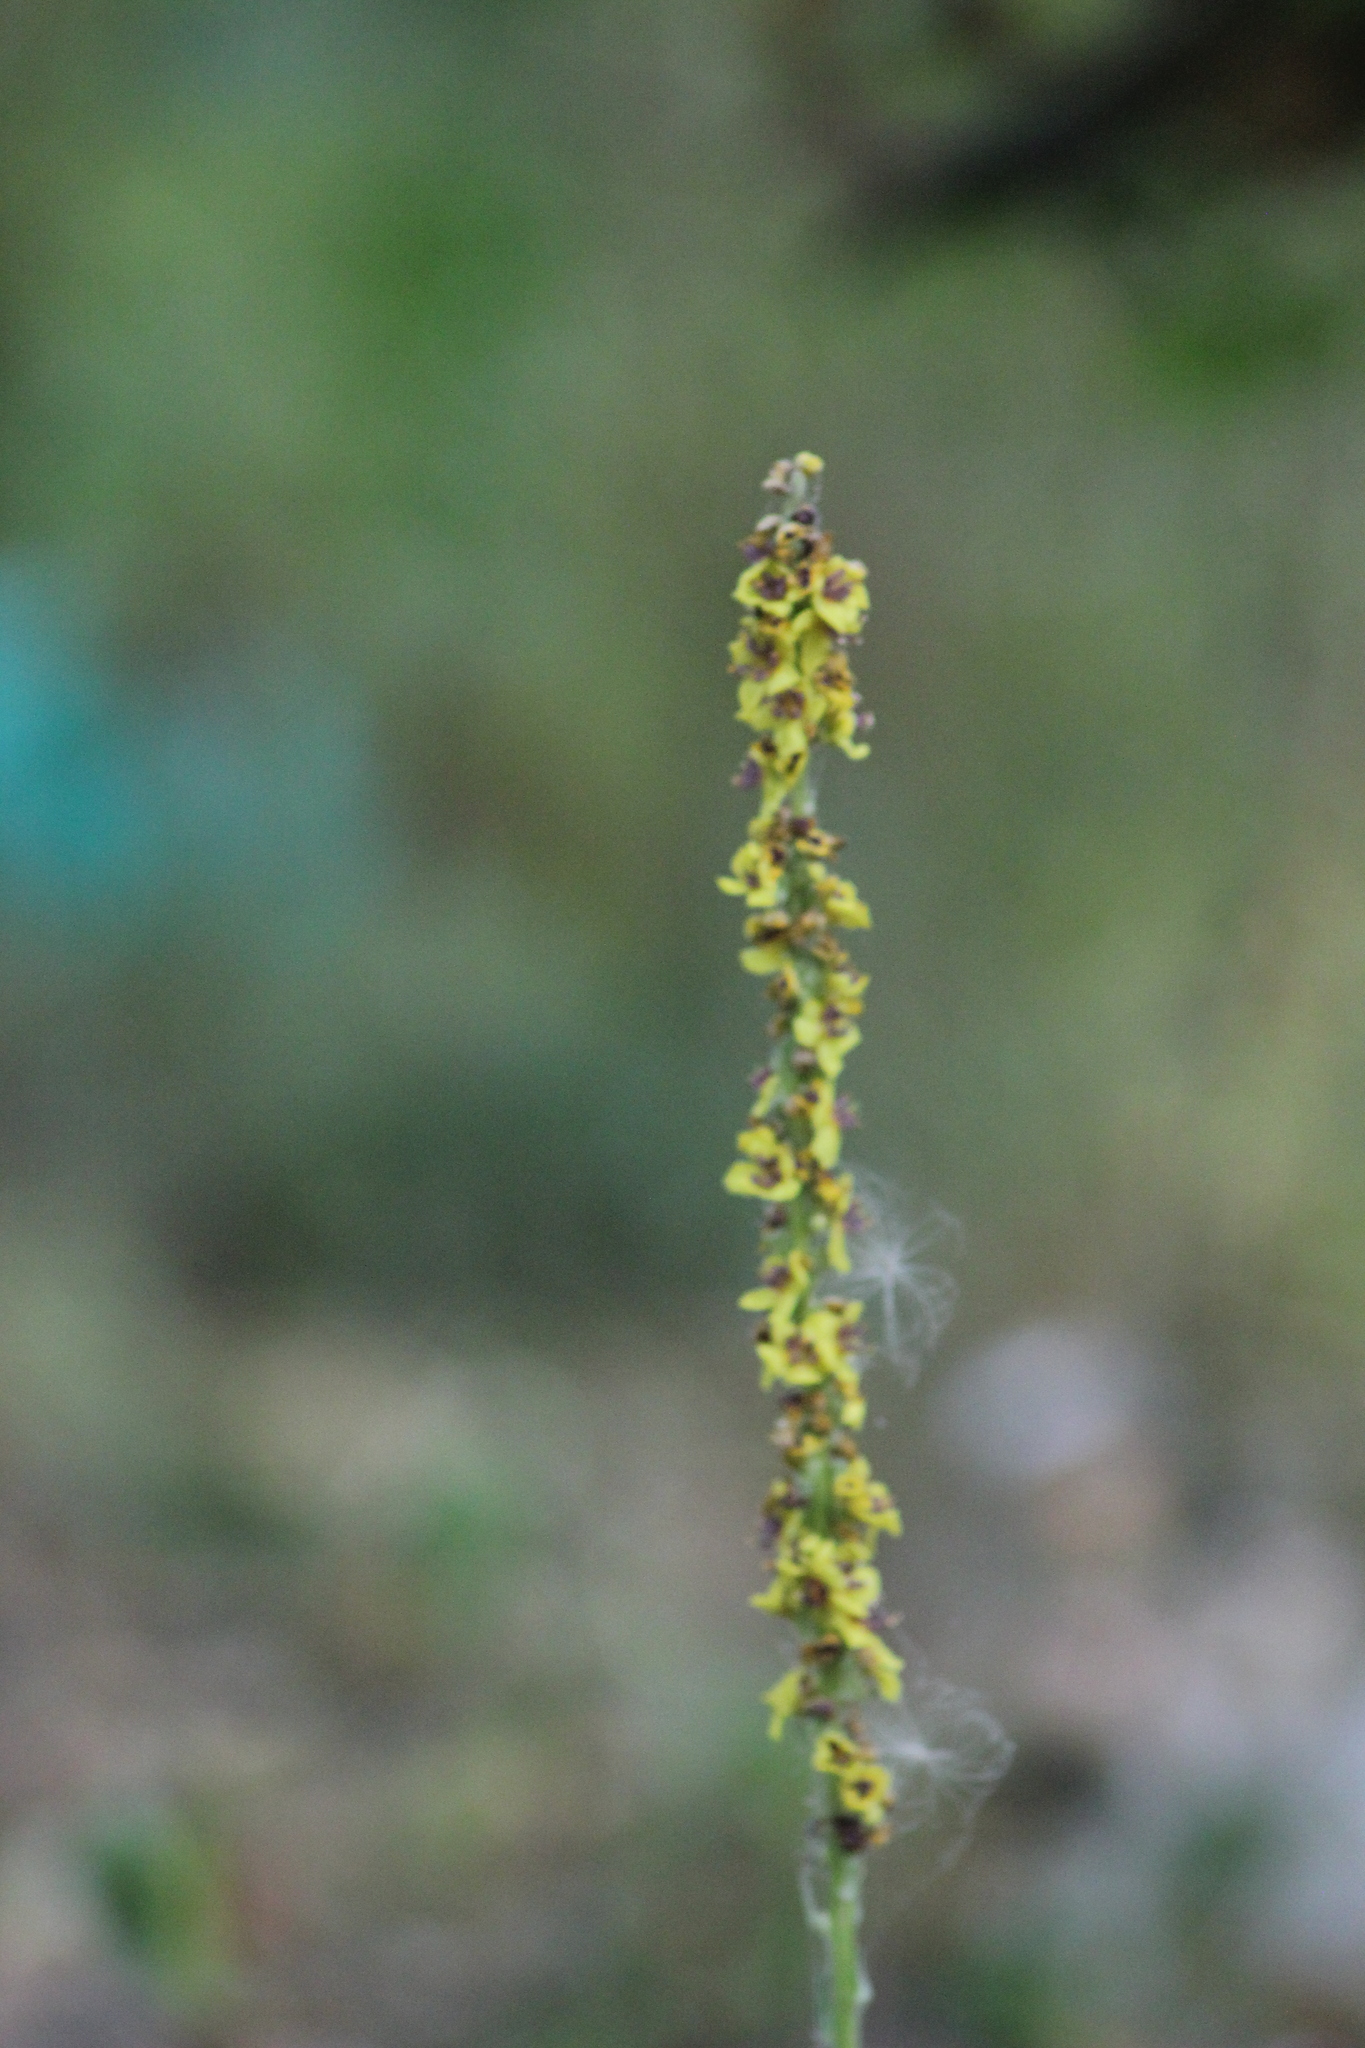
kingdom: Plantae
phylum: Tracheophyta
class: Magnoliopsida
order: Lamiales
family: Scrophulariaceae
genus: Verbascum
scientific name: Verbascum nigrum
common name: Dark mullein
